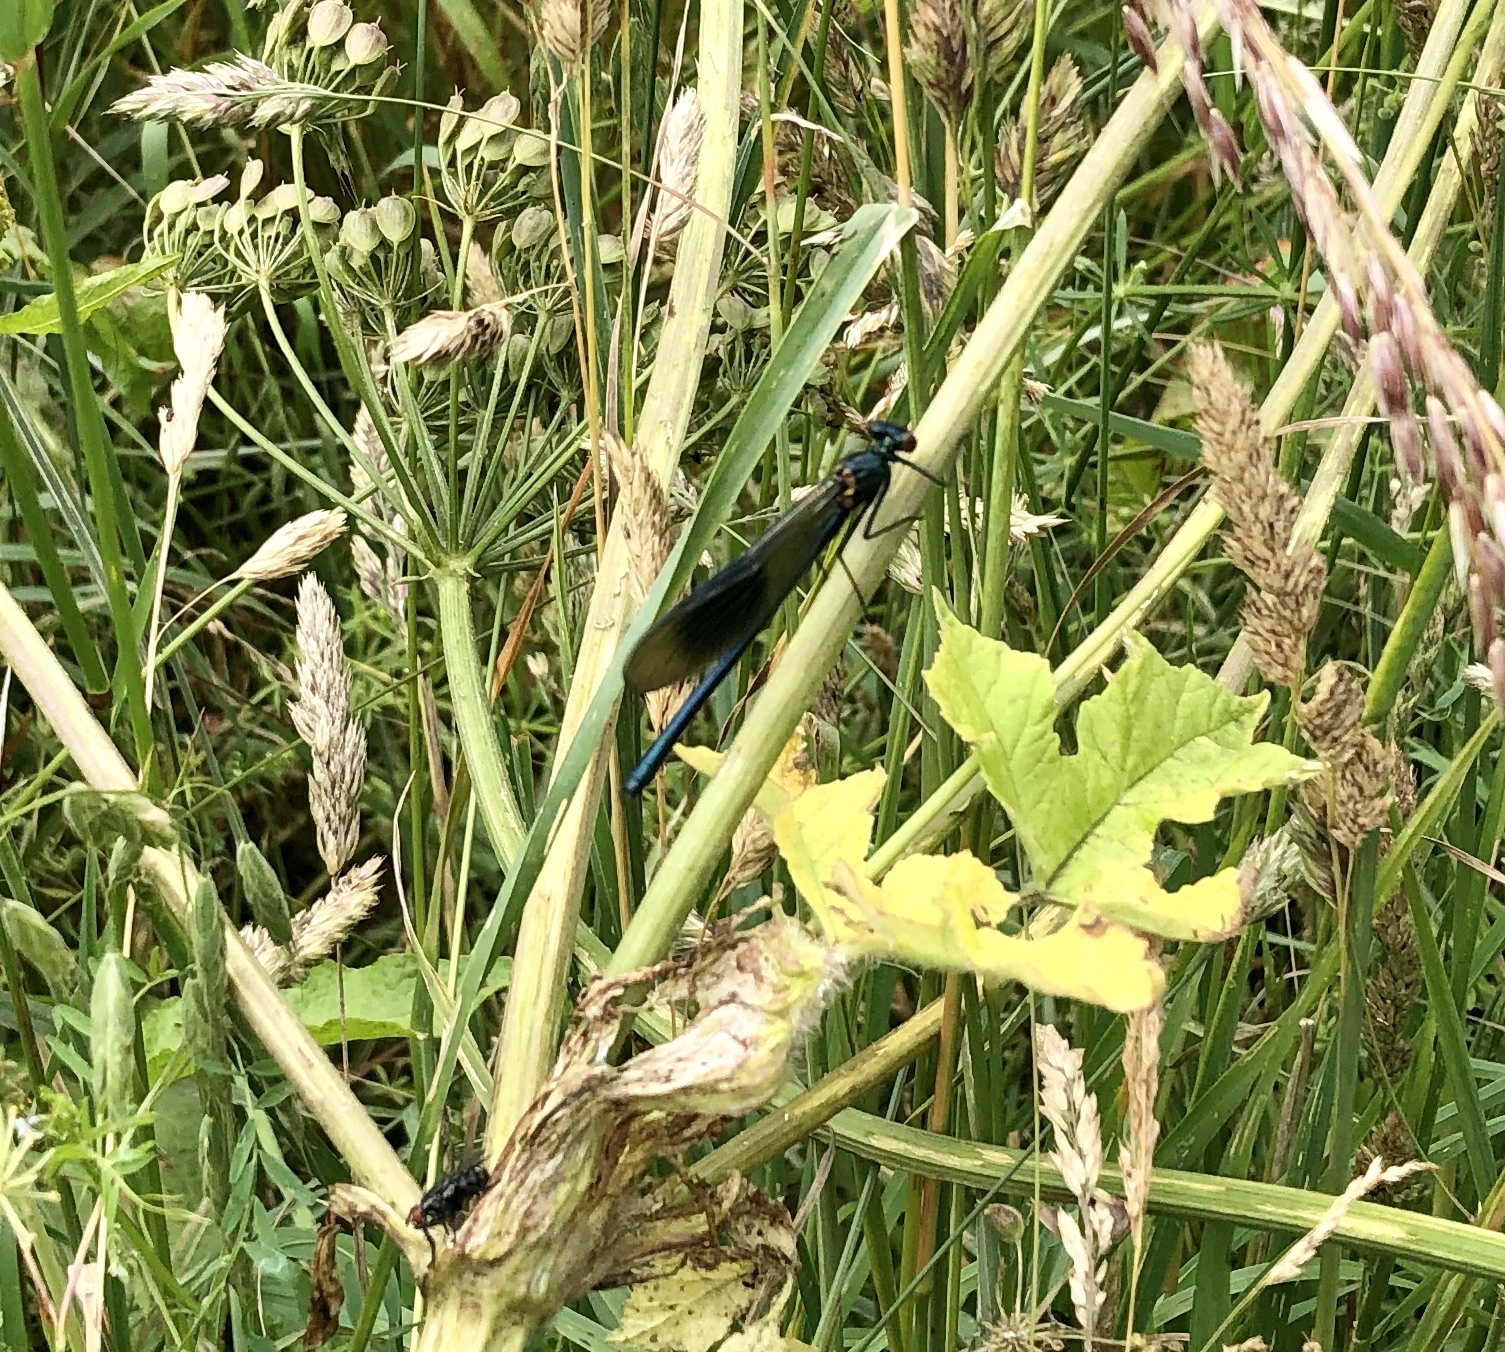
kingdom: Animalia
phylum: Arthropoda
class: Insecta
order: Odonata
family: Calopterygidae
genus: Calopteryx
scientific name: Calopteryx splendens
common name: Banded demoiselle
